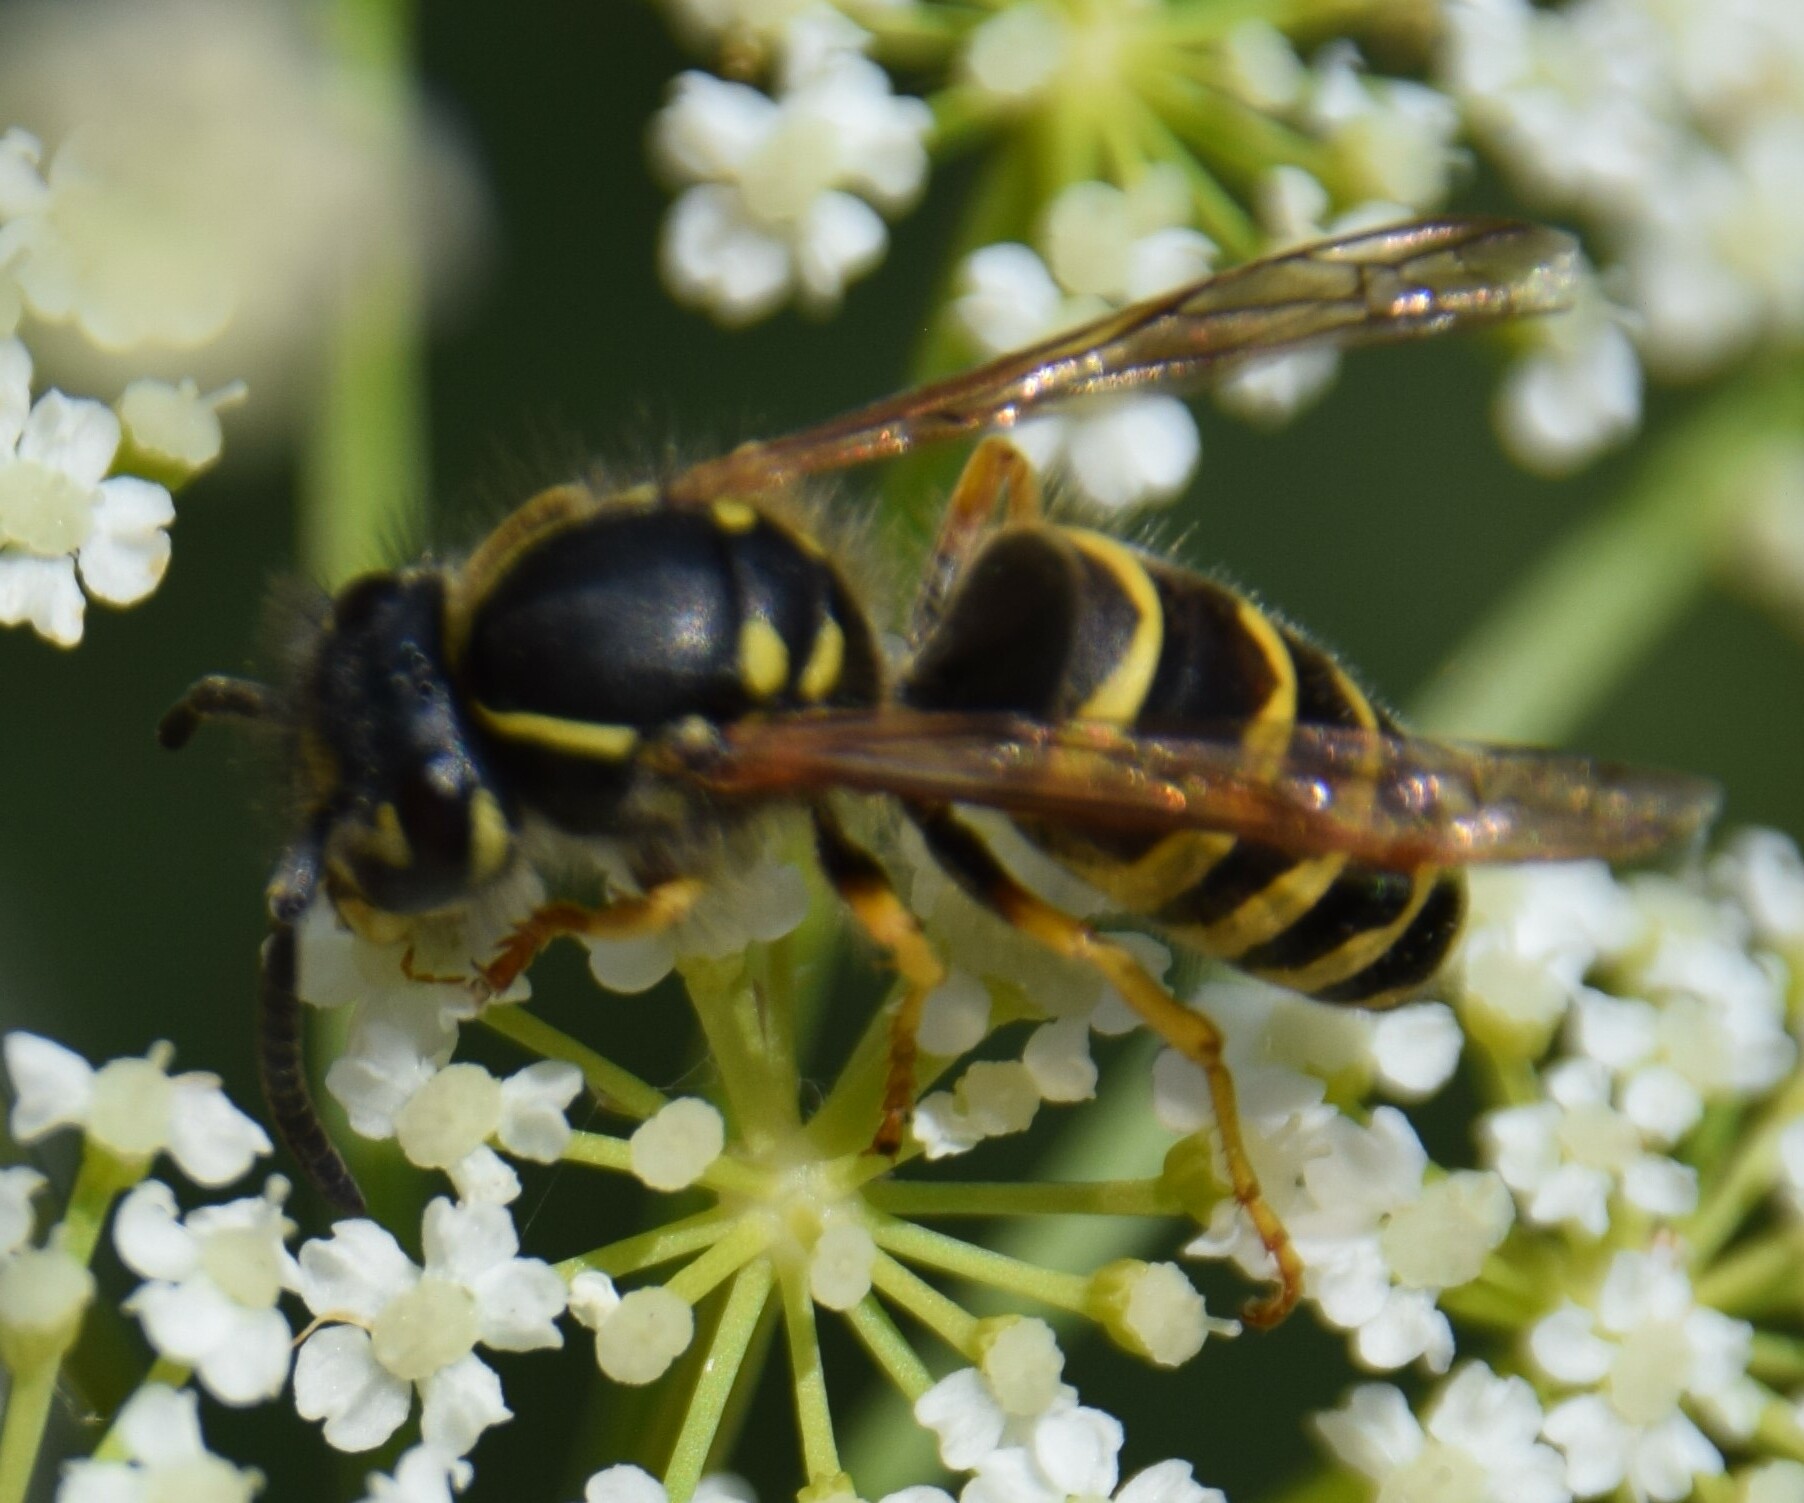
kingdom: Animalia
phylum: Arthropoda
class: Insecta
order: Hymenoptera
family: Vespidae
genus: Vespula
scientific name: Vespula alascensis
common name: Alaska yellowjacket
